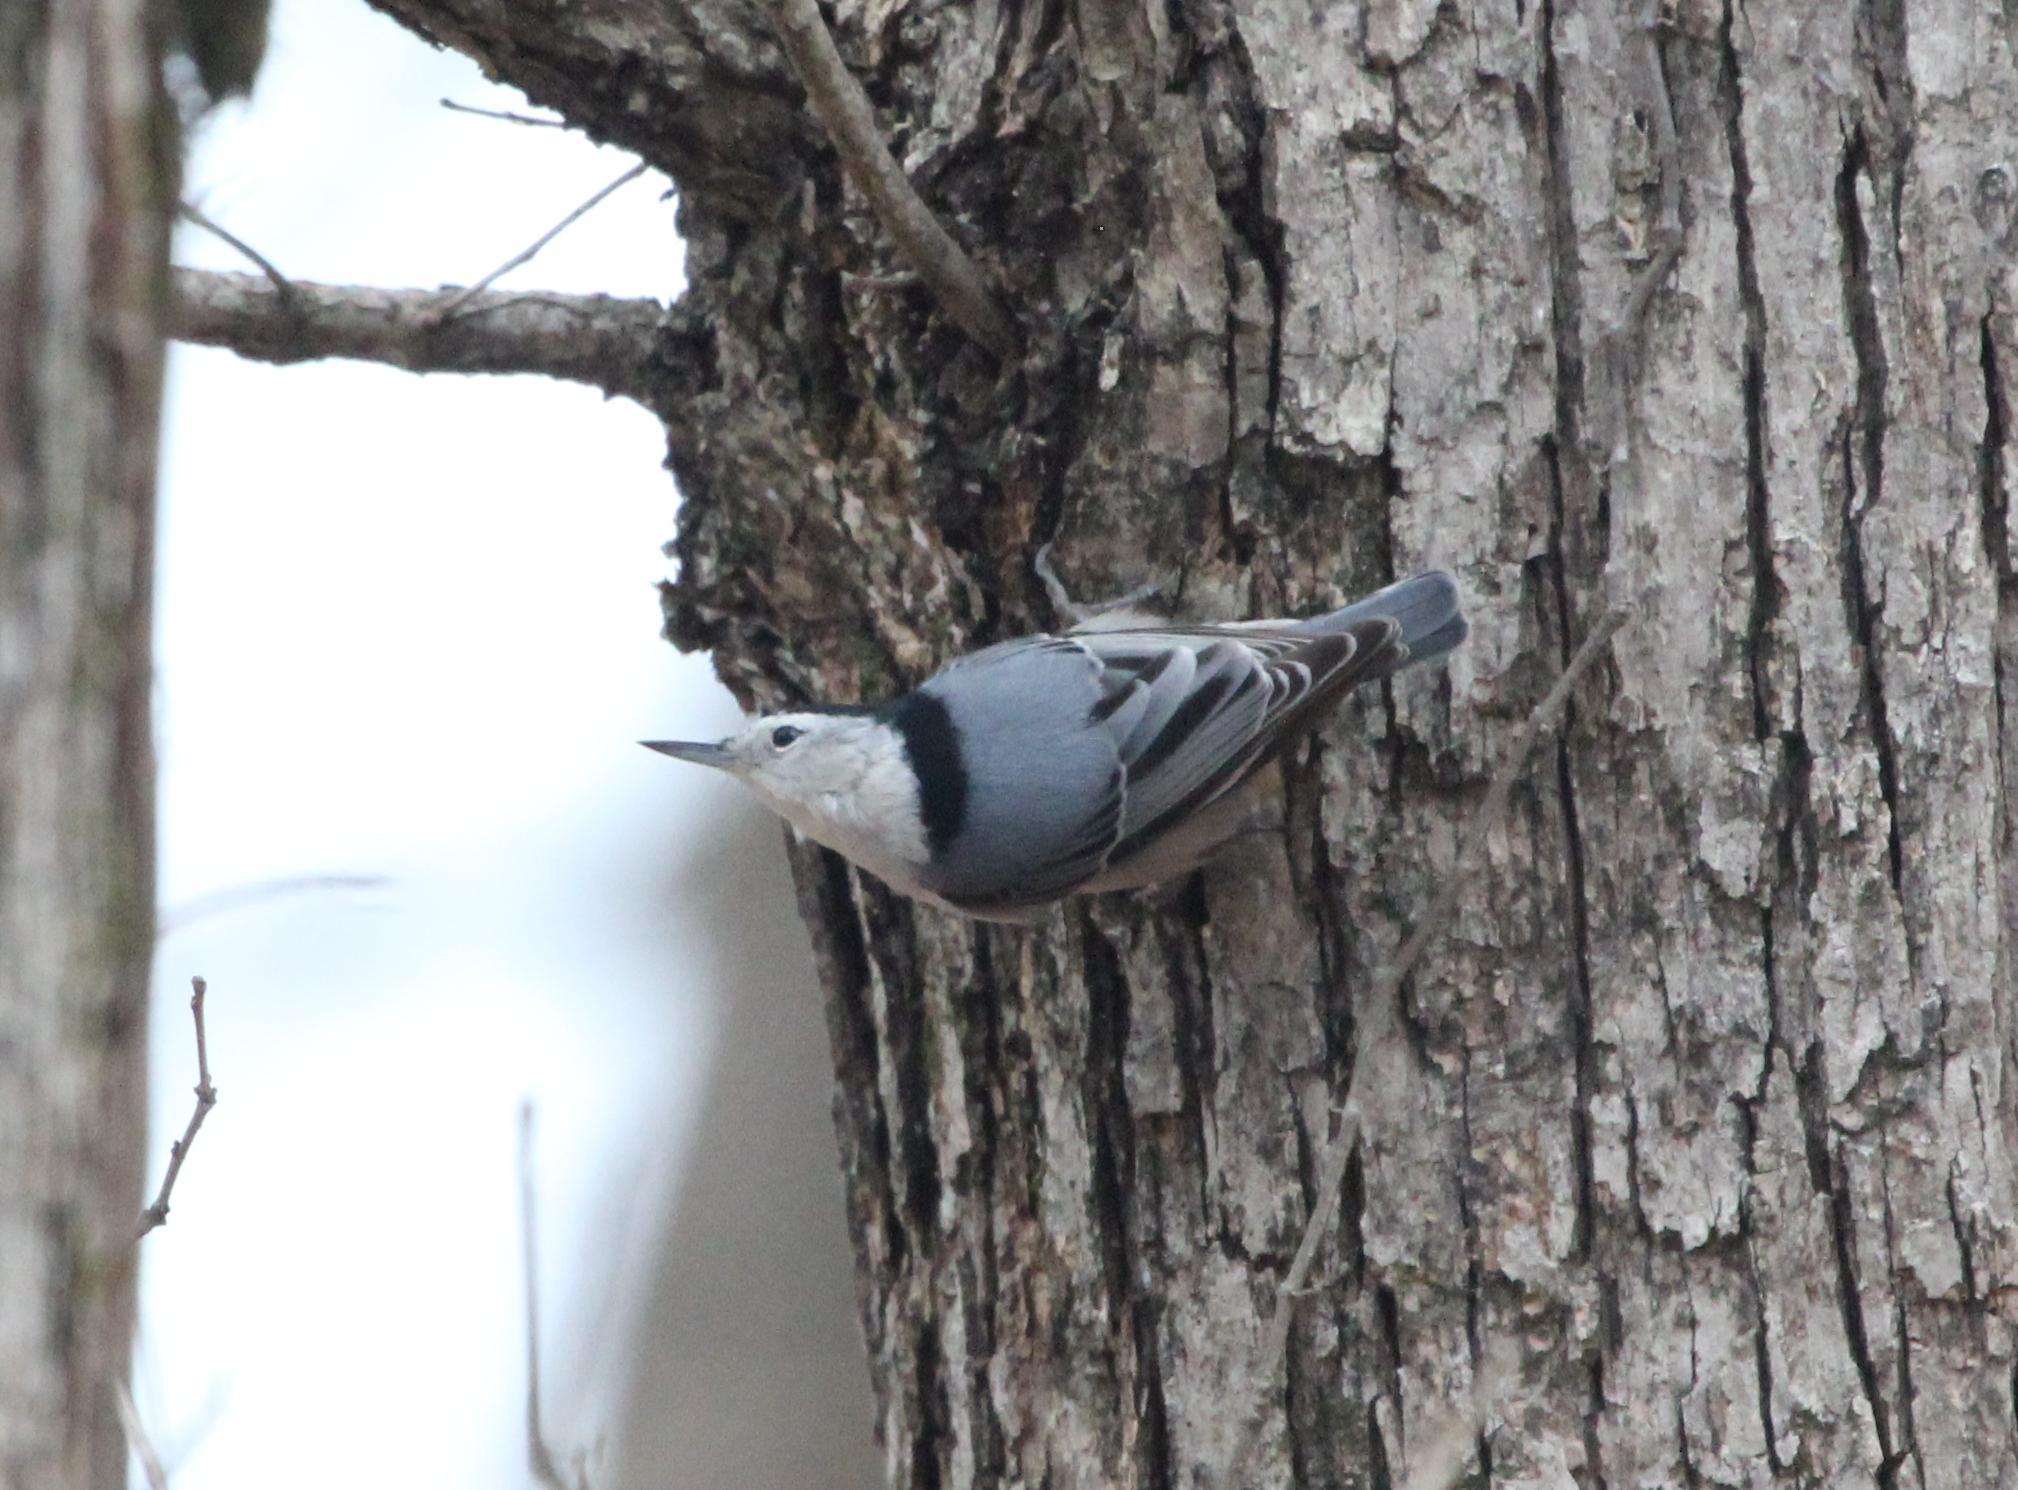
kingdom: Animalia
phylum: Chordata
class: Aves
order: Passeriformes
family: Sittidae
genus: Sitta
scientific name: Sitta carolinensis
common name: White-breasted nuthatch
